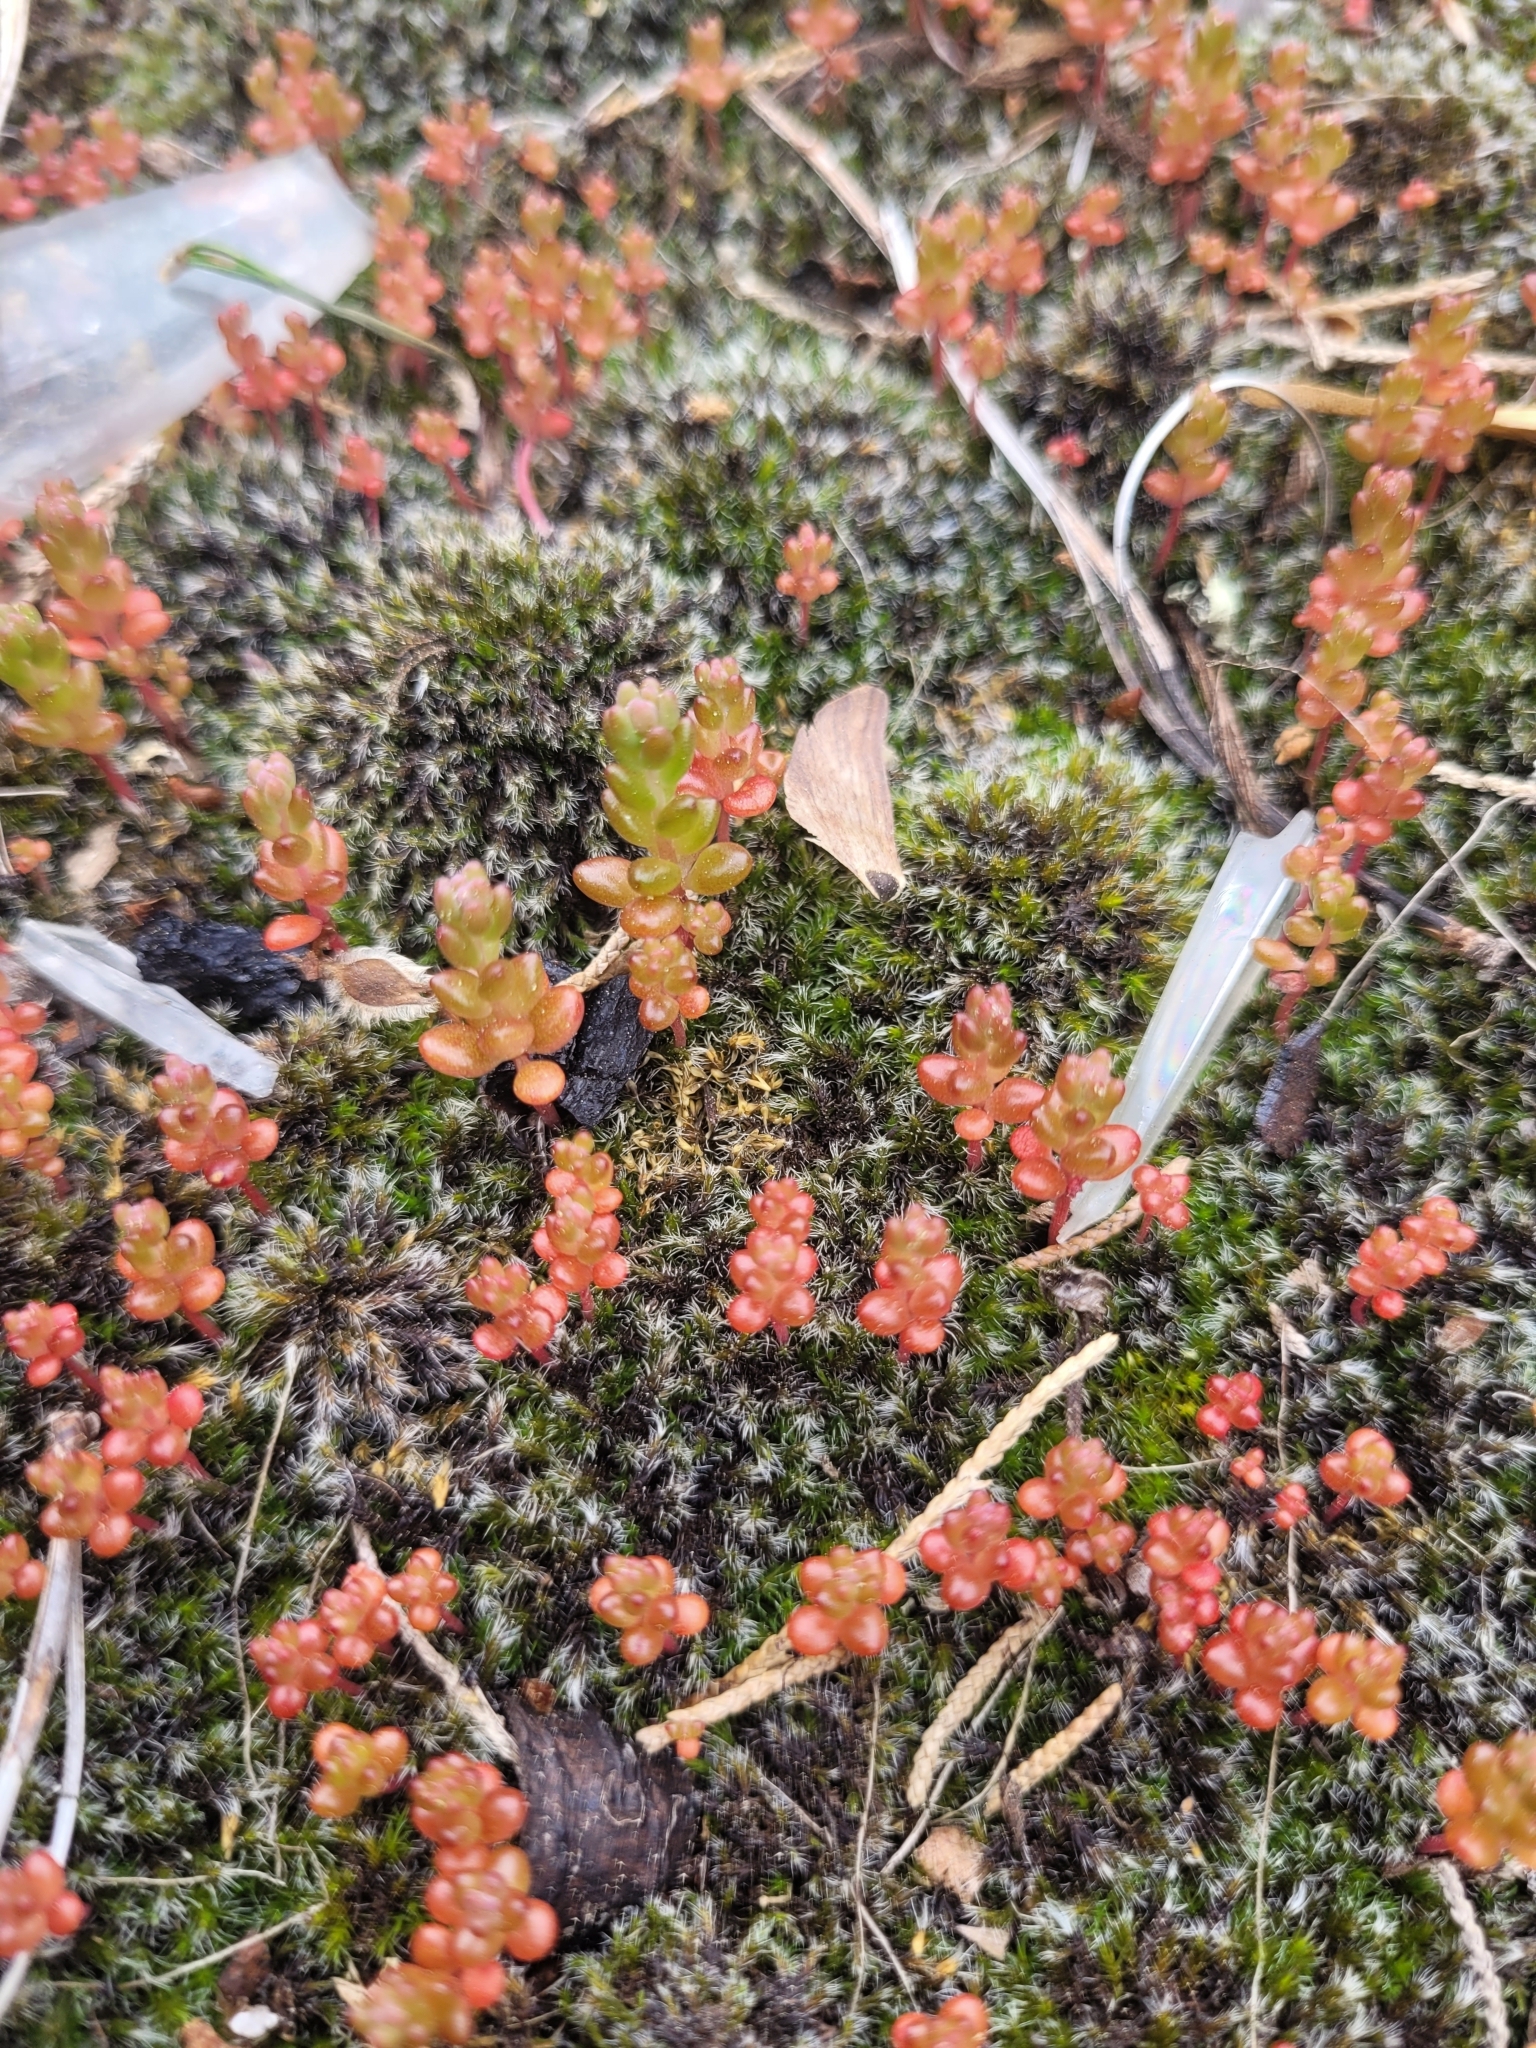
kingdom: Plantae
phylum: Tracheophyta
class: Magnoliopsida
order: Saxifragales
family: Crassulaceae
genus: Sedum
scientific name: Sedum smallii
